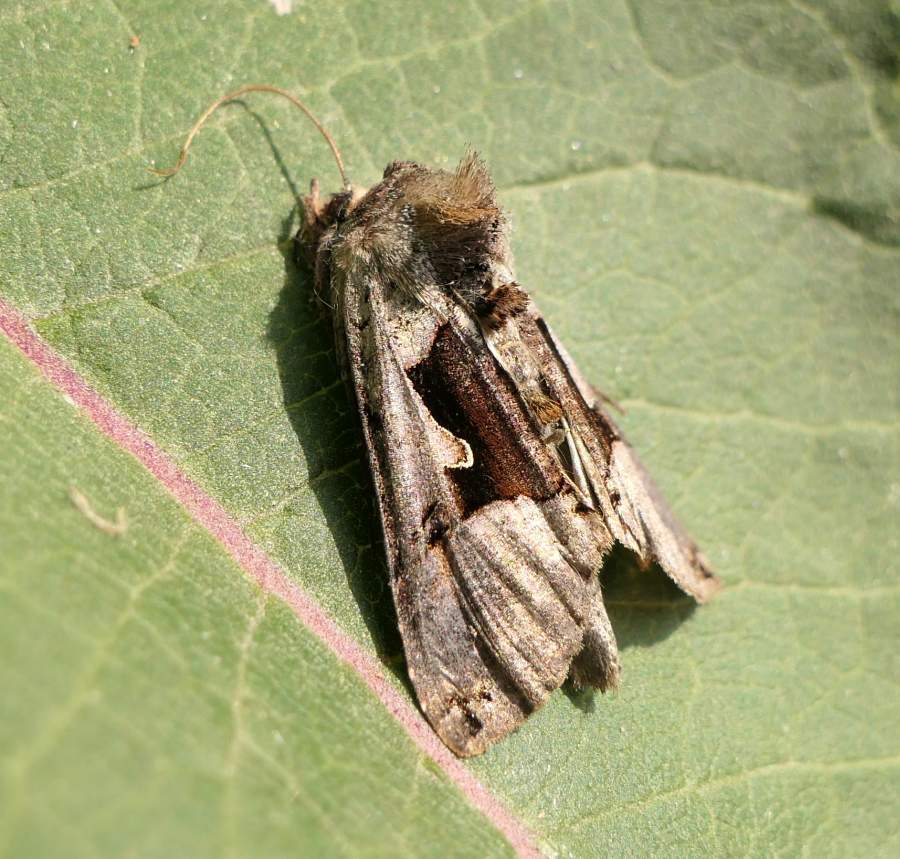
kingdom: Animalia
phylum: Arthropoda
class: Insecta
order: Lepidoptera
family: Noctuidae
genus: Autographa
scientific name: Autographa ampla
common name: Large looper moth
